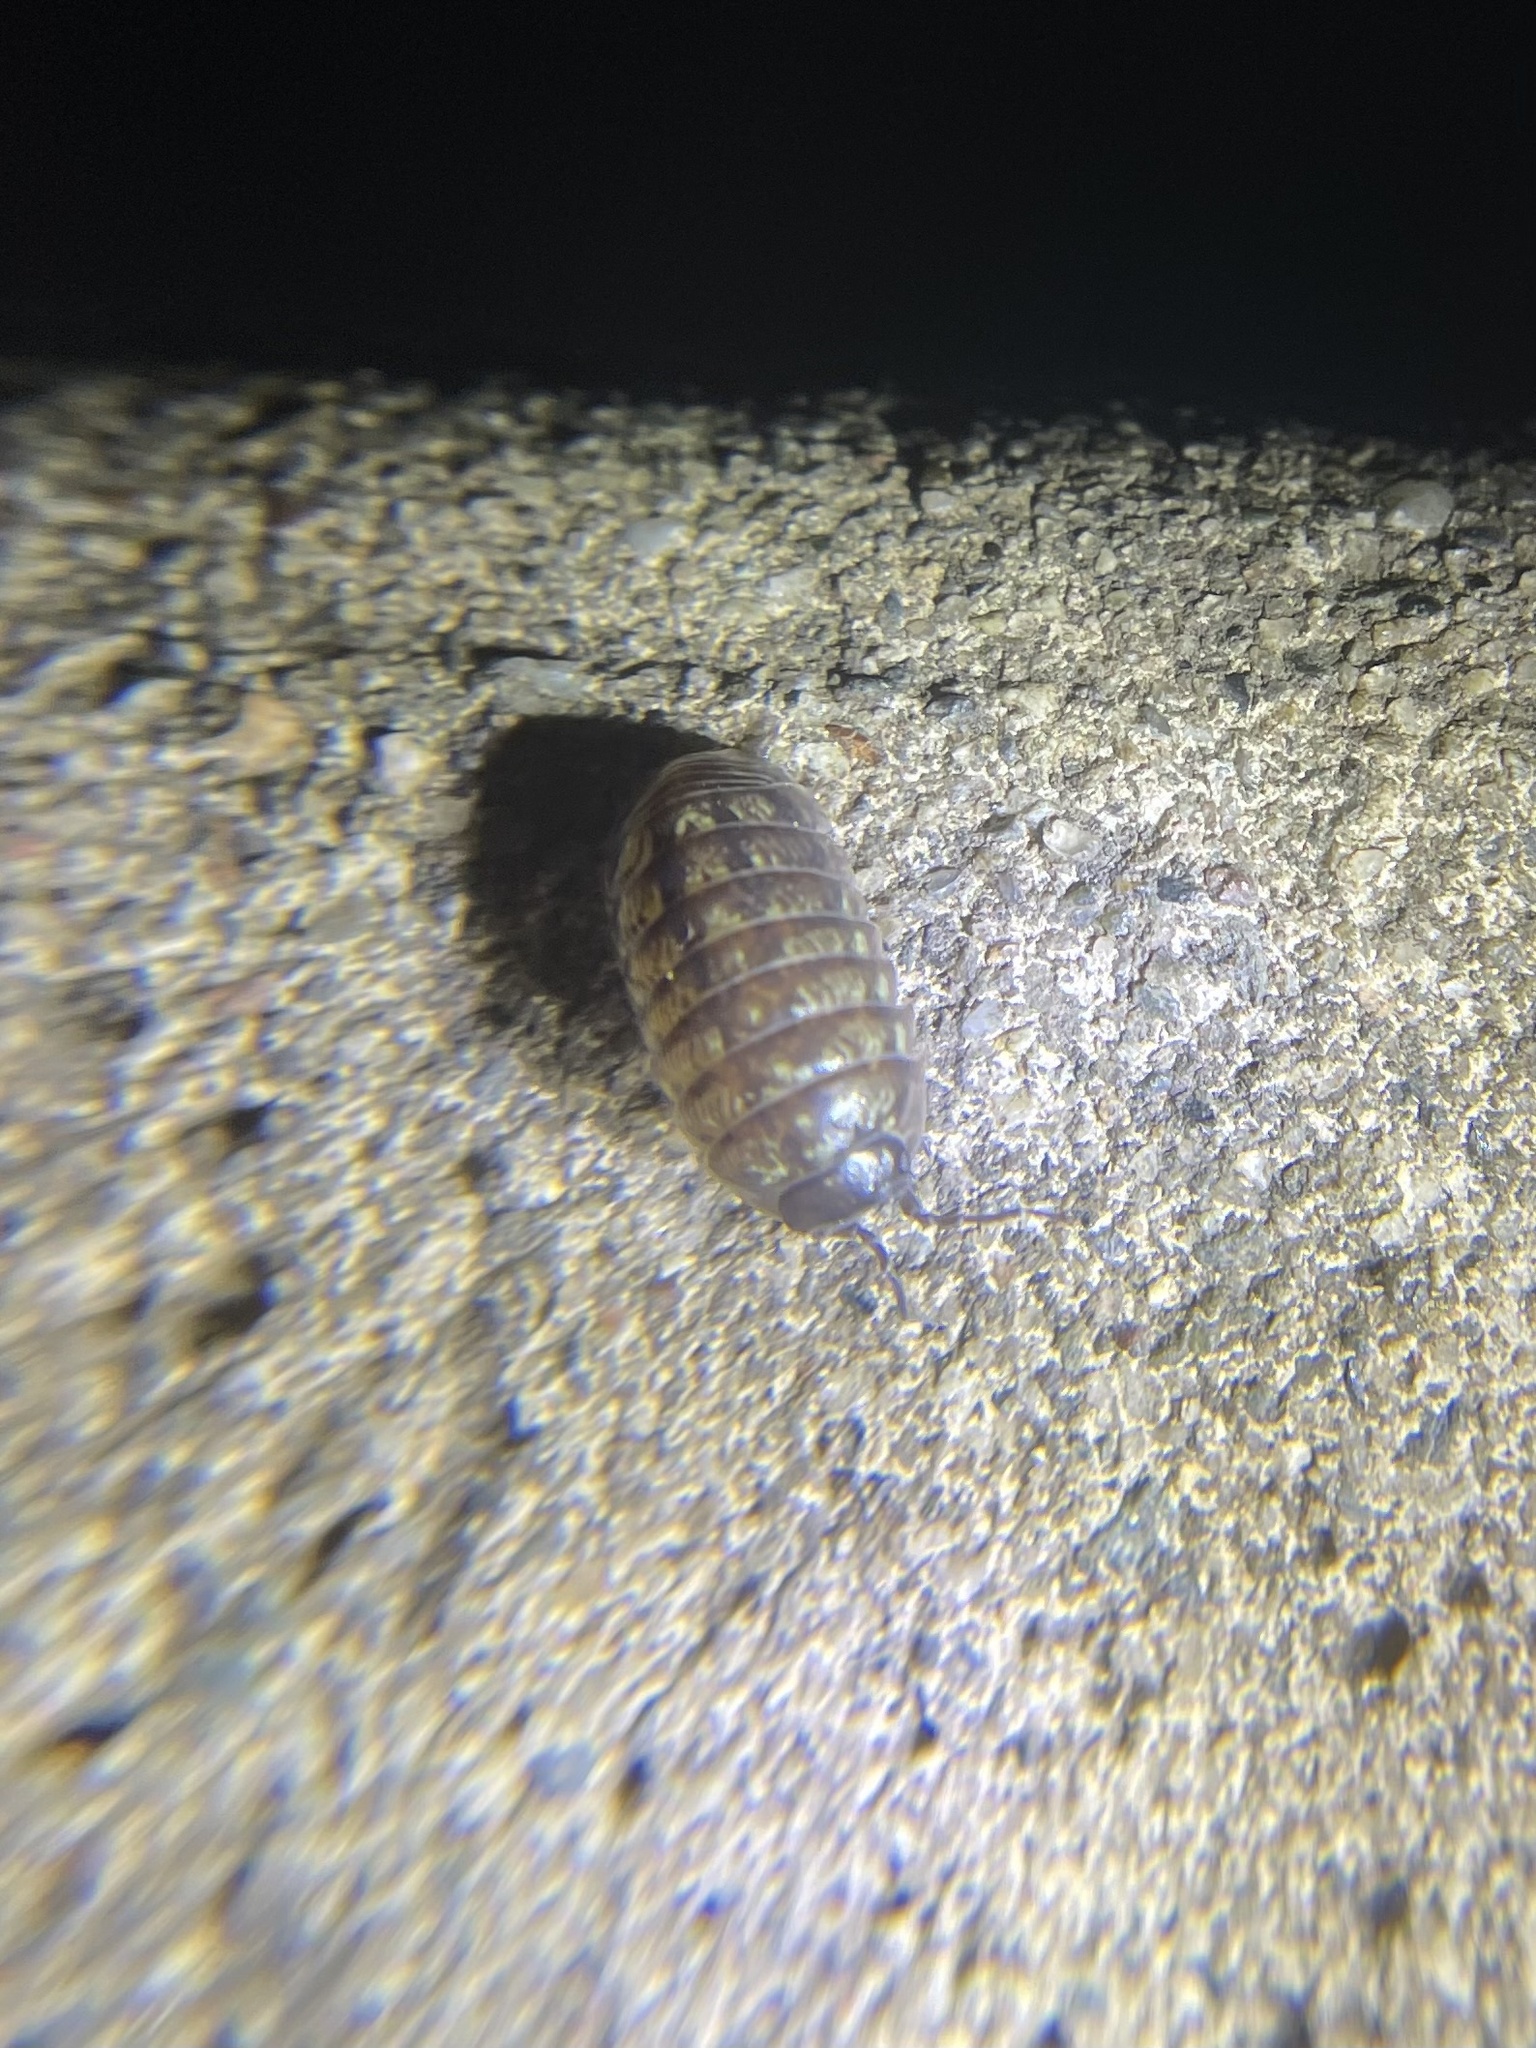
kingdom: Animalia
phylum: Arthropoda
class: Malacostraca
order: Isopoda
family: Armadillidiidae
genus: Armadillidium
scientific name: Armadillidium vulgare
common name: Common pill woodlouse
